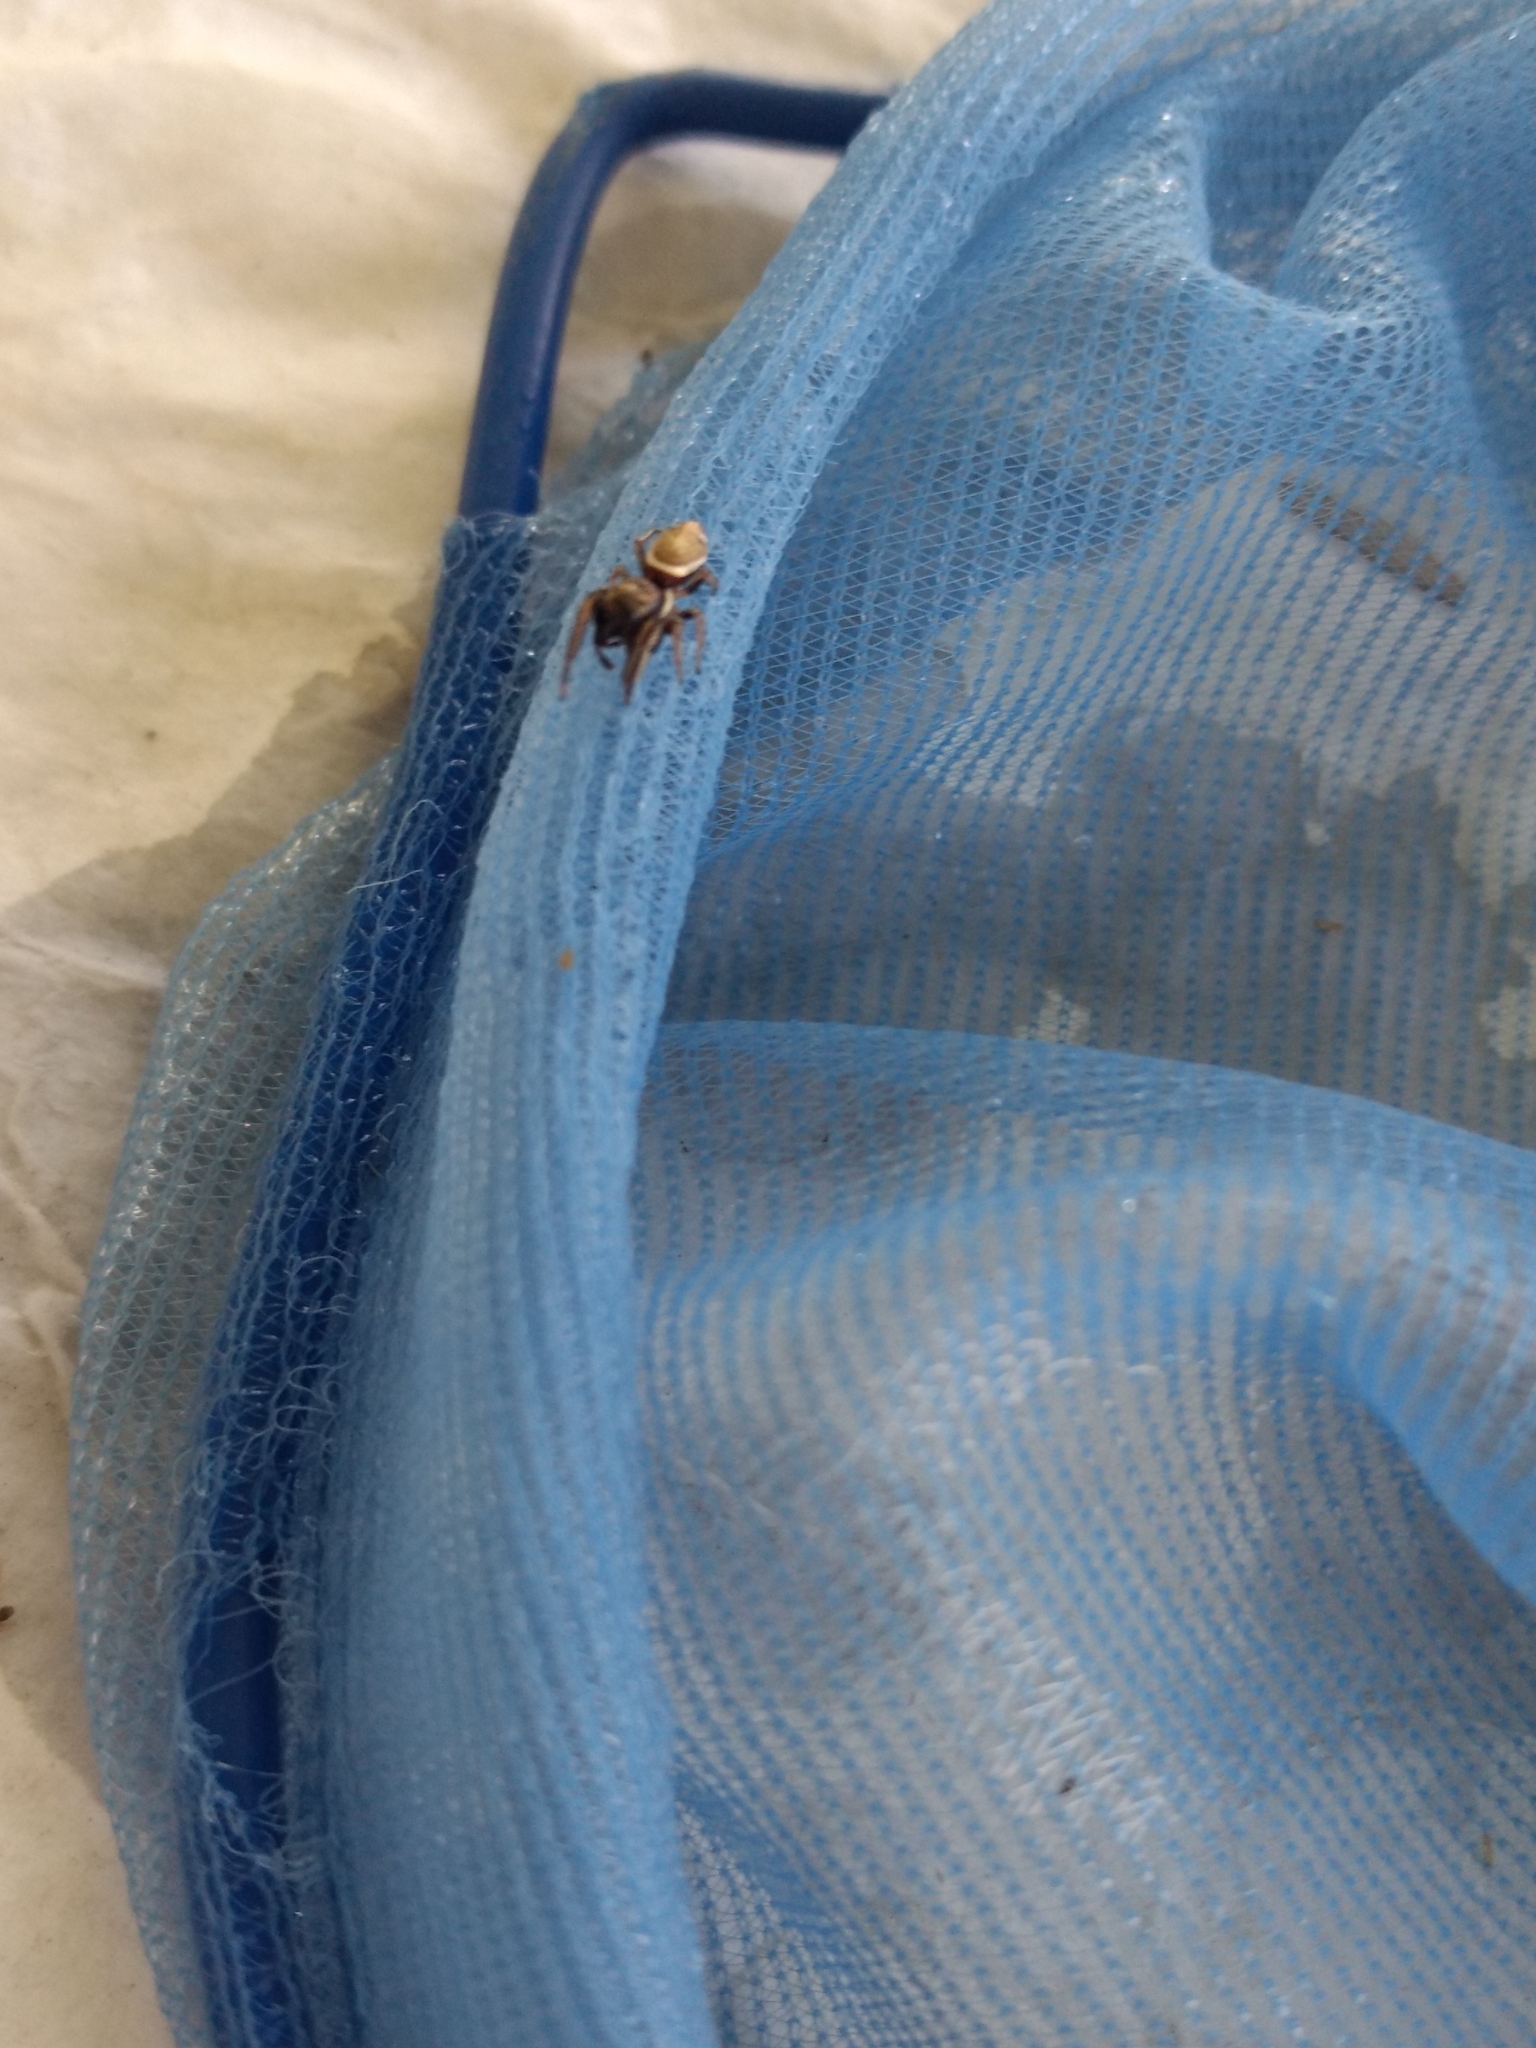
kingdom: Animalia
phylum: Arthropoda
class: Arachnida
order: Araneae
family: Salticidae
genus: Sassacus
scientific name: Sassacus vitis
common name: Jumping spiders
